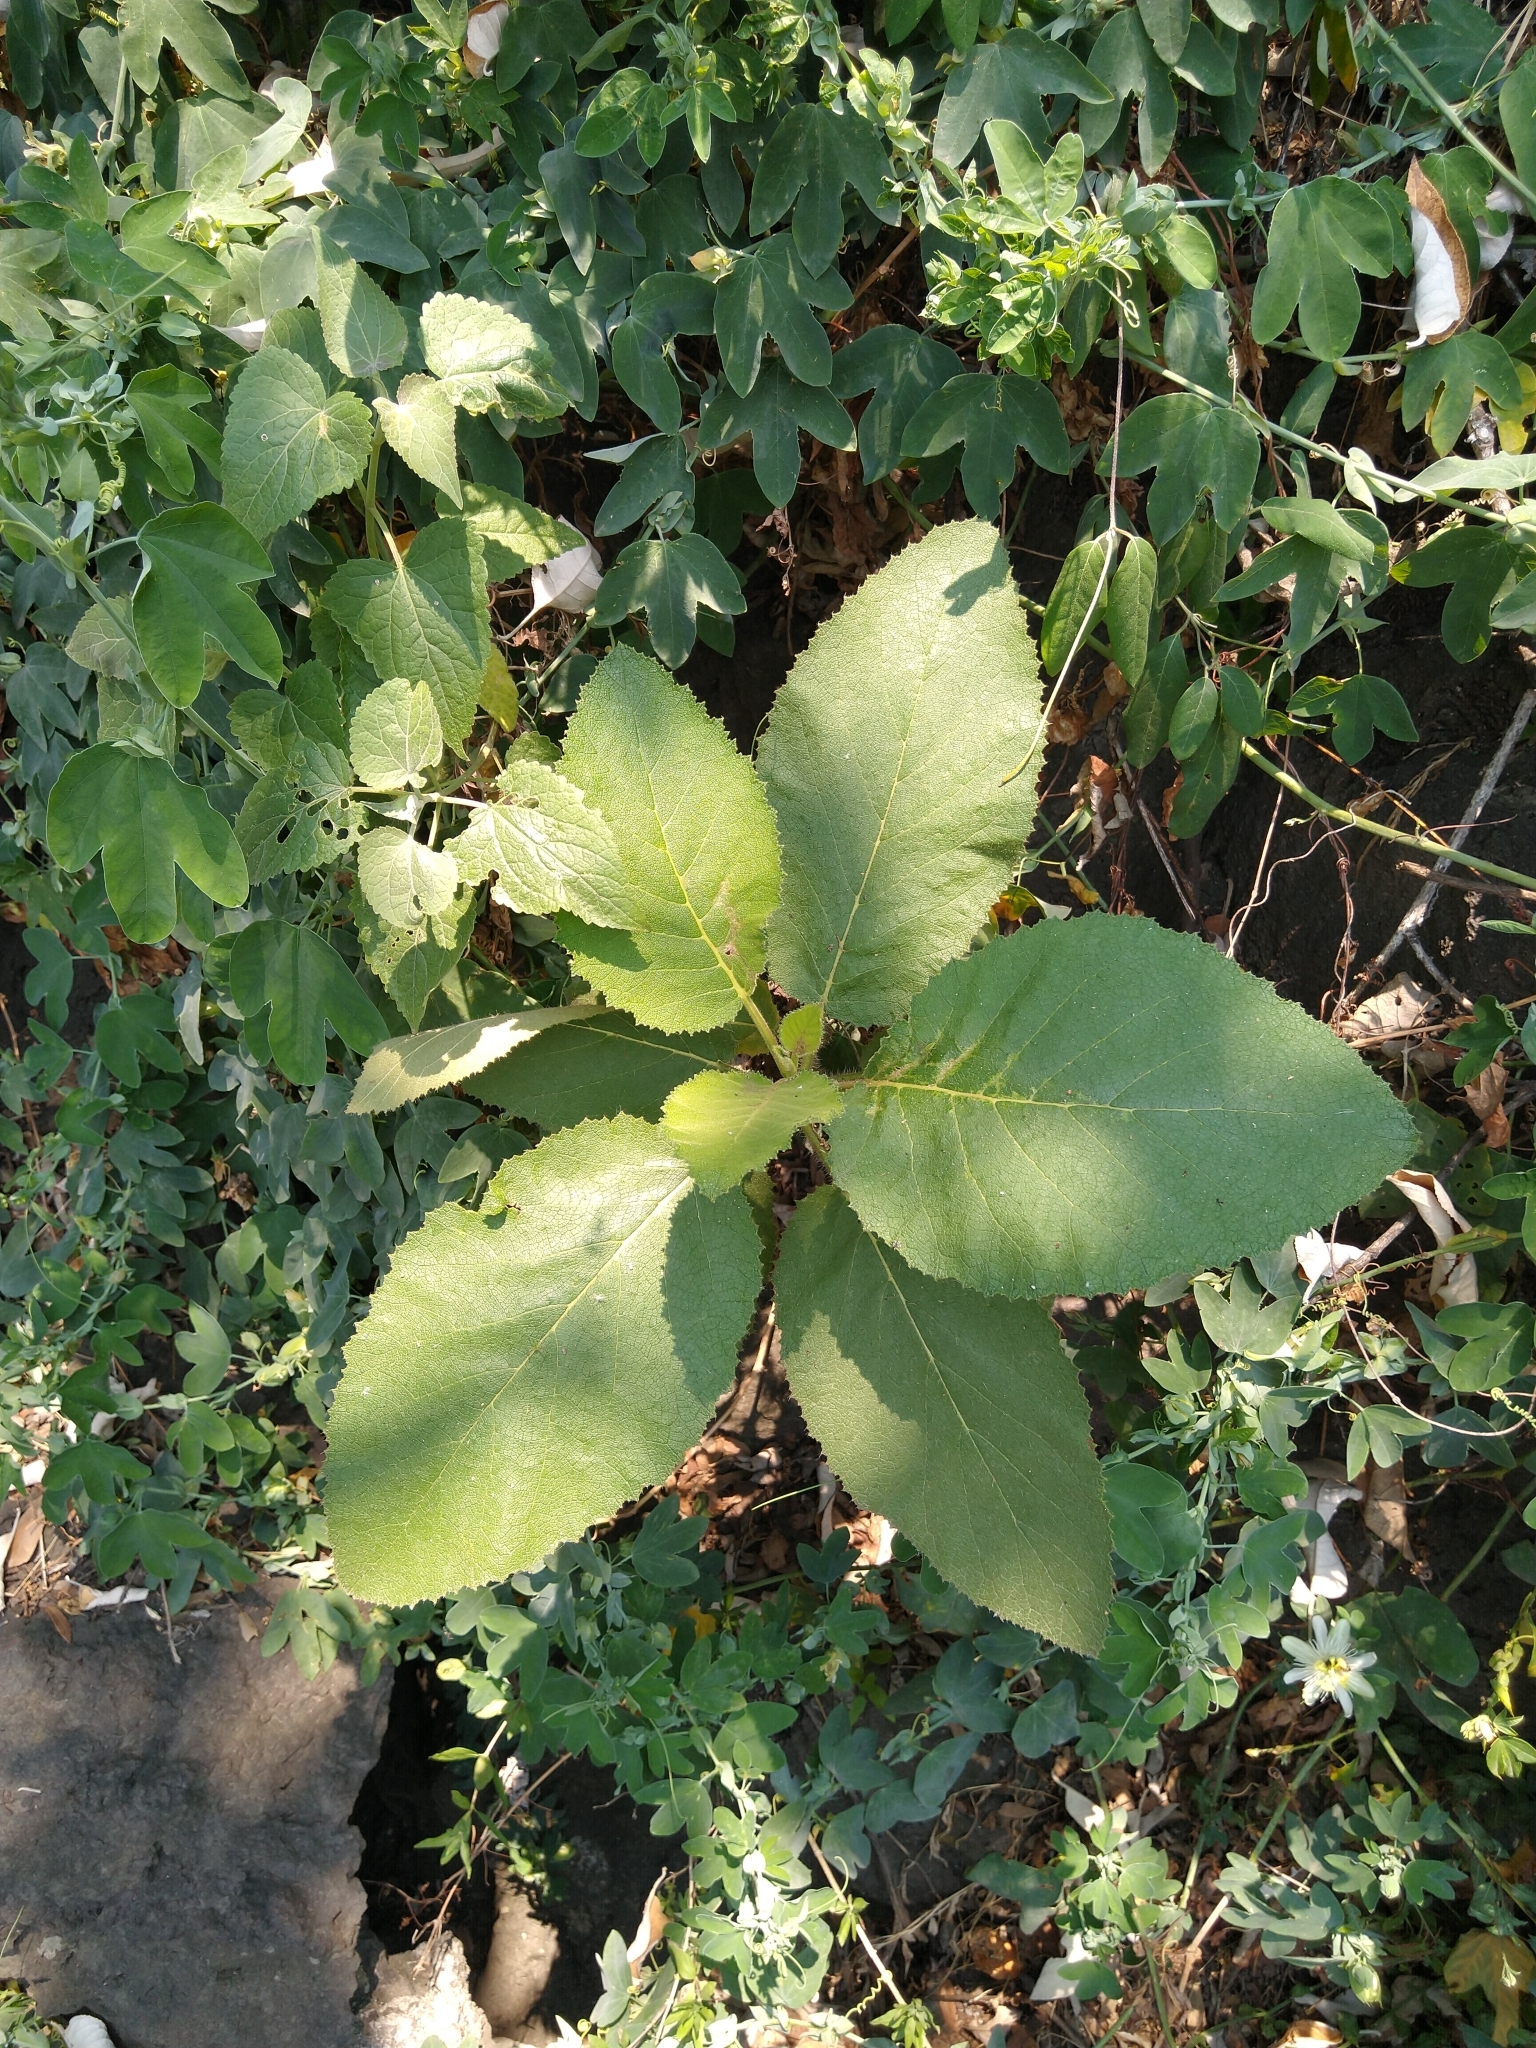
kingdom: Plantae
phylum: Tracheophyta
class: Magnoliopsida
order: Boraginales
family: Namaceae
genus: Wigandia
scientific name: Wigandia urens
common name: Caracus wigandia
